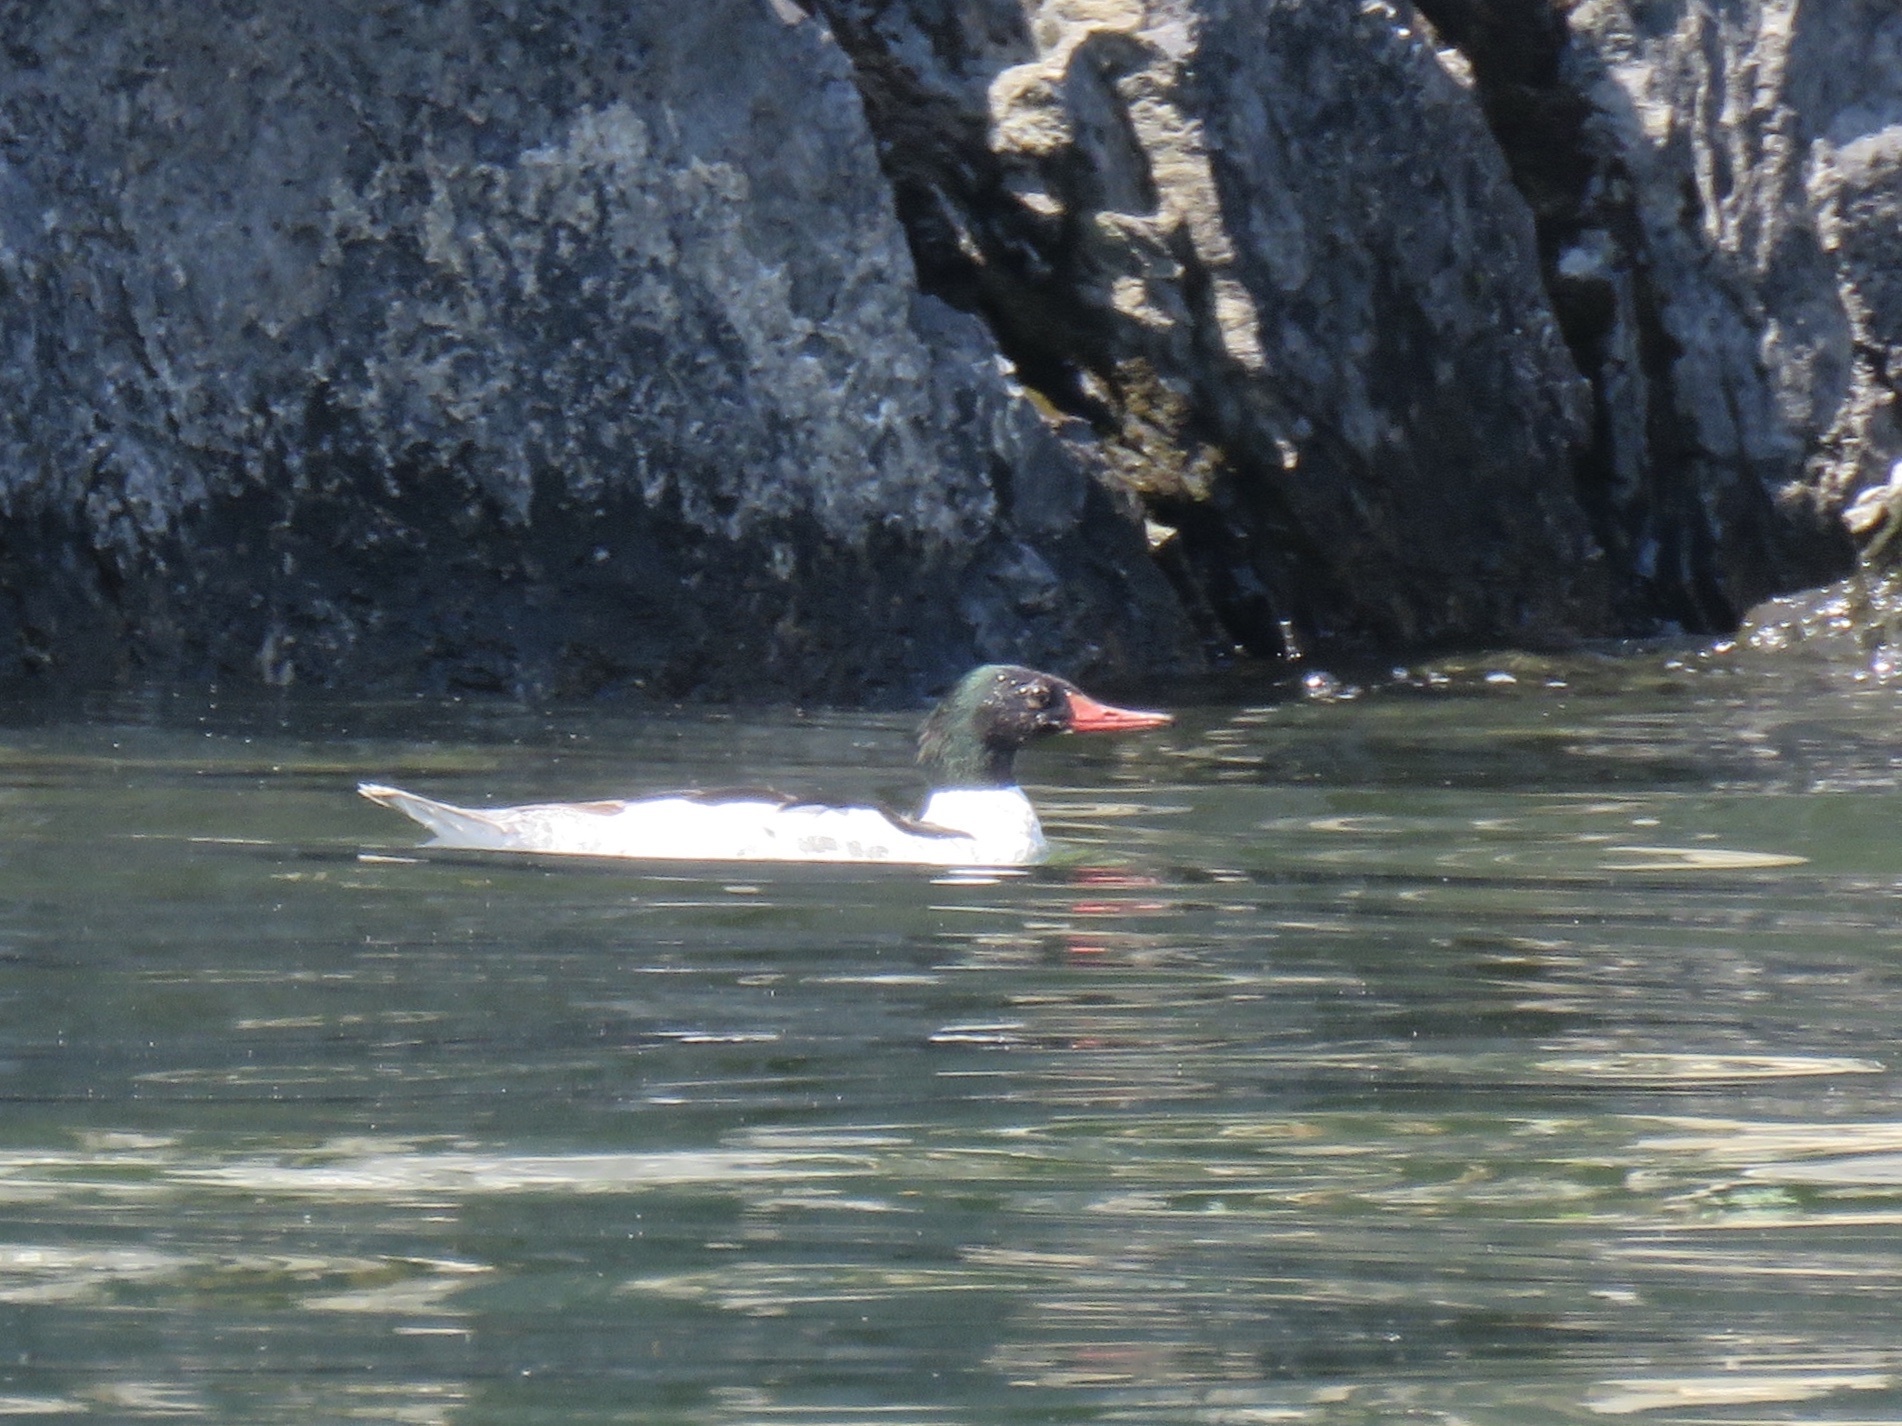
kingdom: Animalia
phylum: Chordata
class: Aves
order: Anseriformes
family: Anatidae
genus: Mergus
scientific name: Mergus merganser
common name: Common merganser
